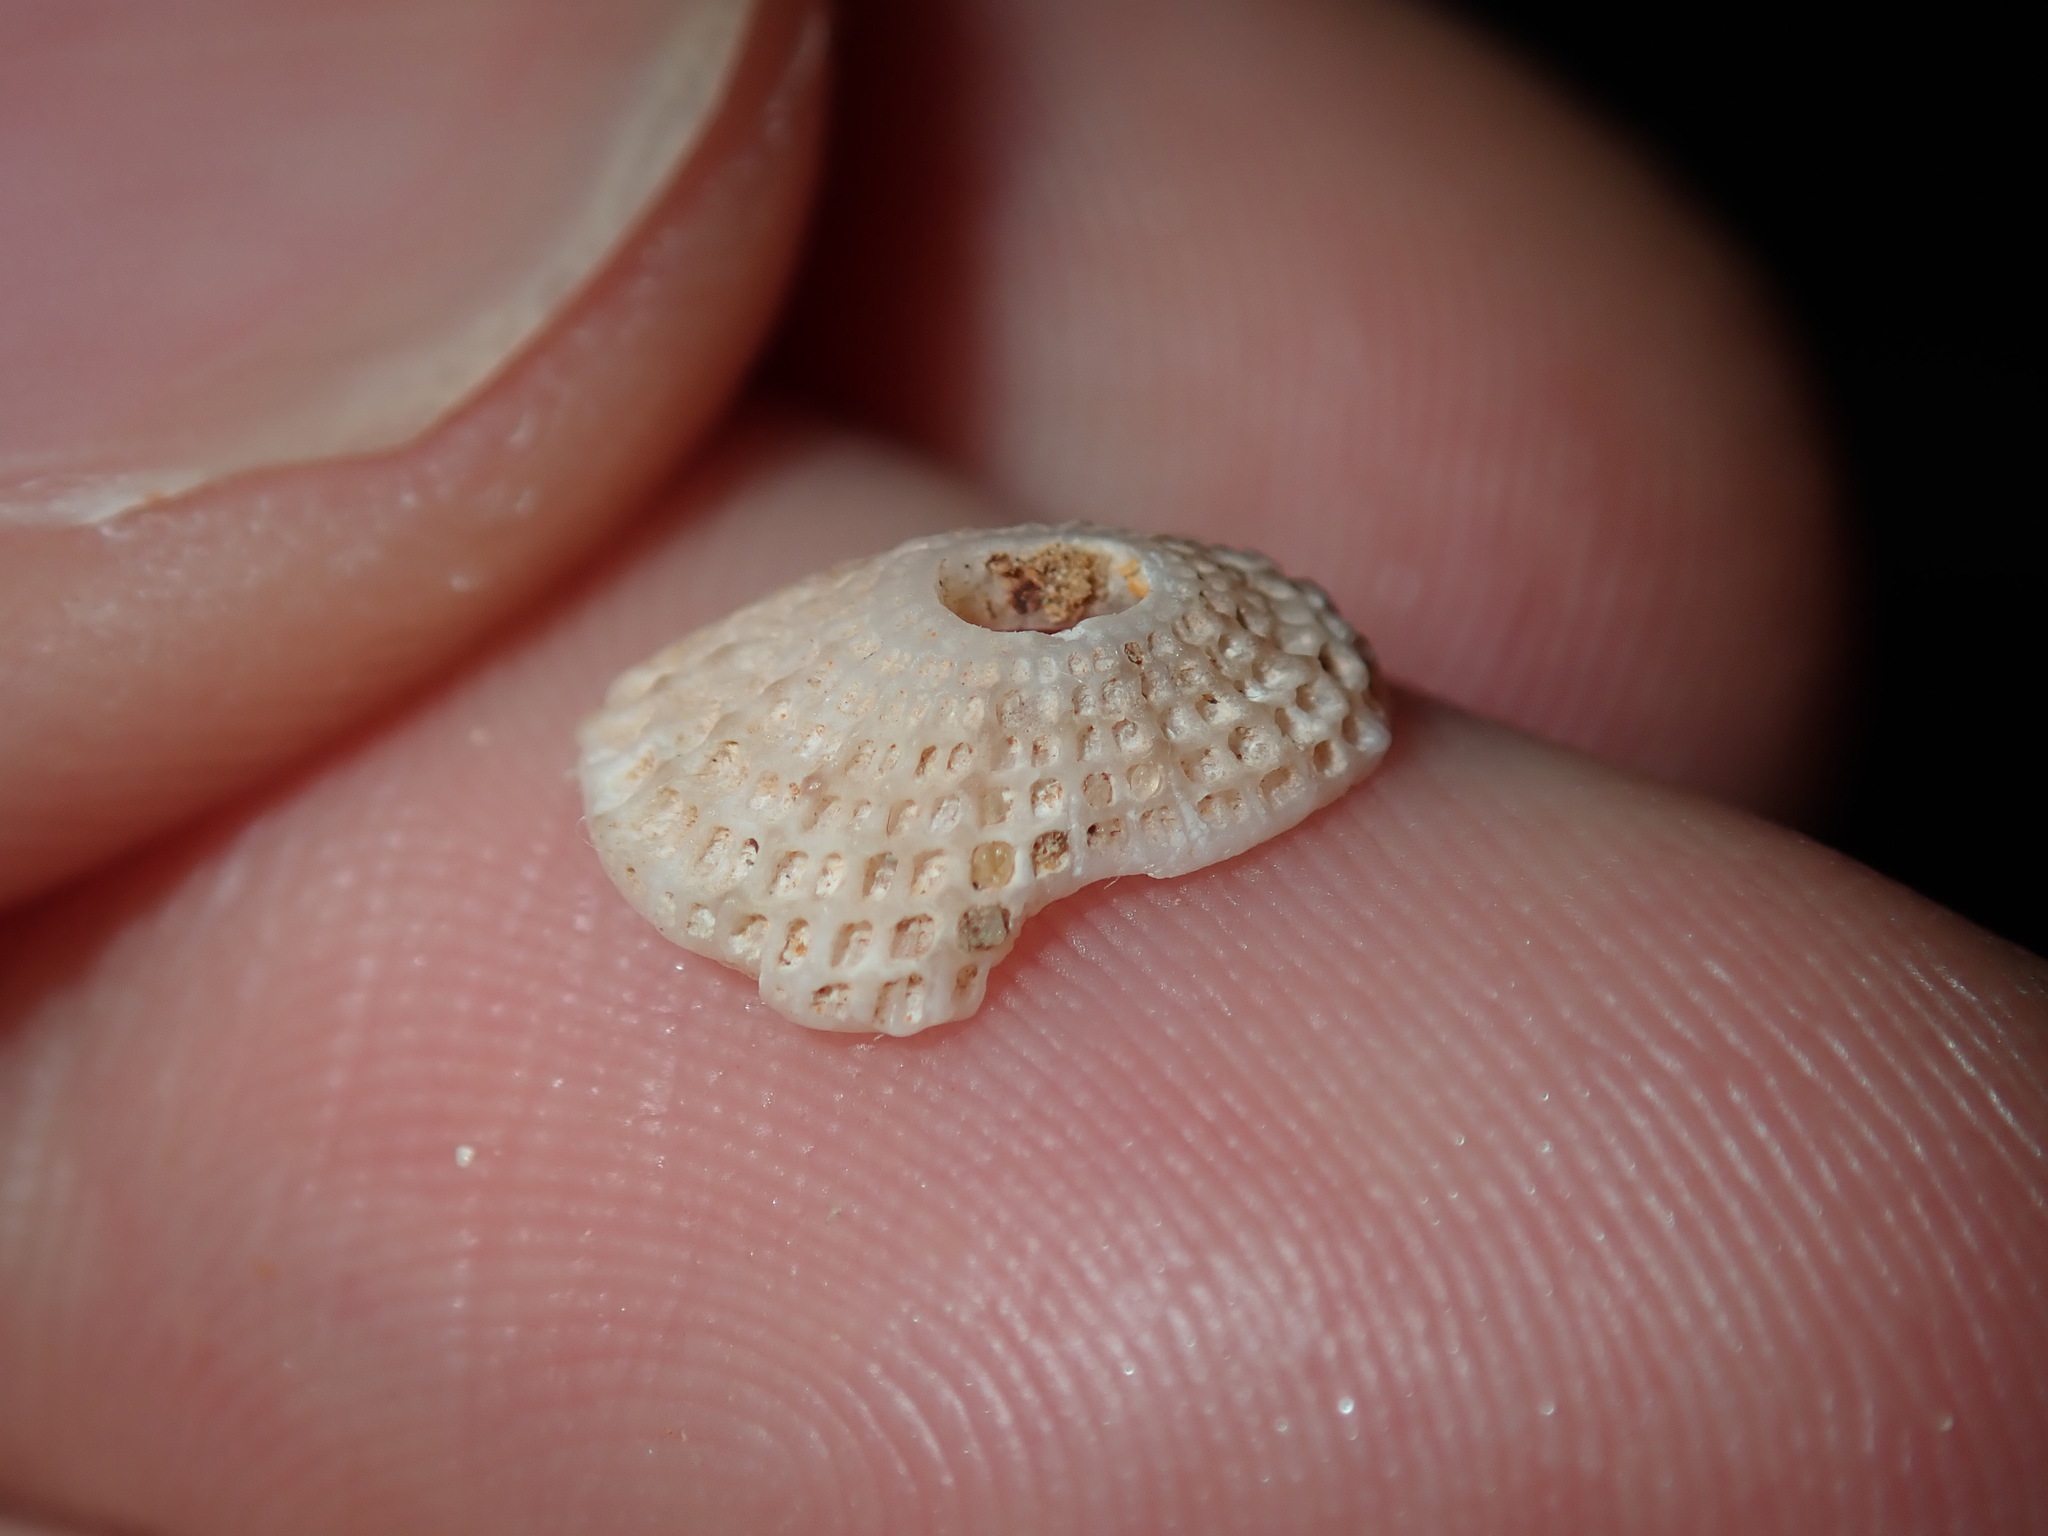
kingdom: Animalia
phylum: Mollusca
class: Gastropoda
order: Lepetellida
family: Fissurellidae
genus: Diodora
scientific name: Diodora lineata
